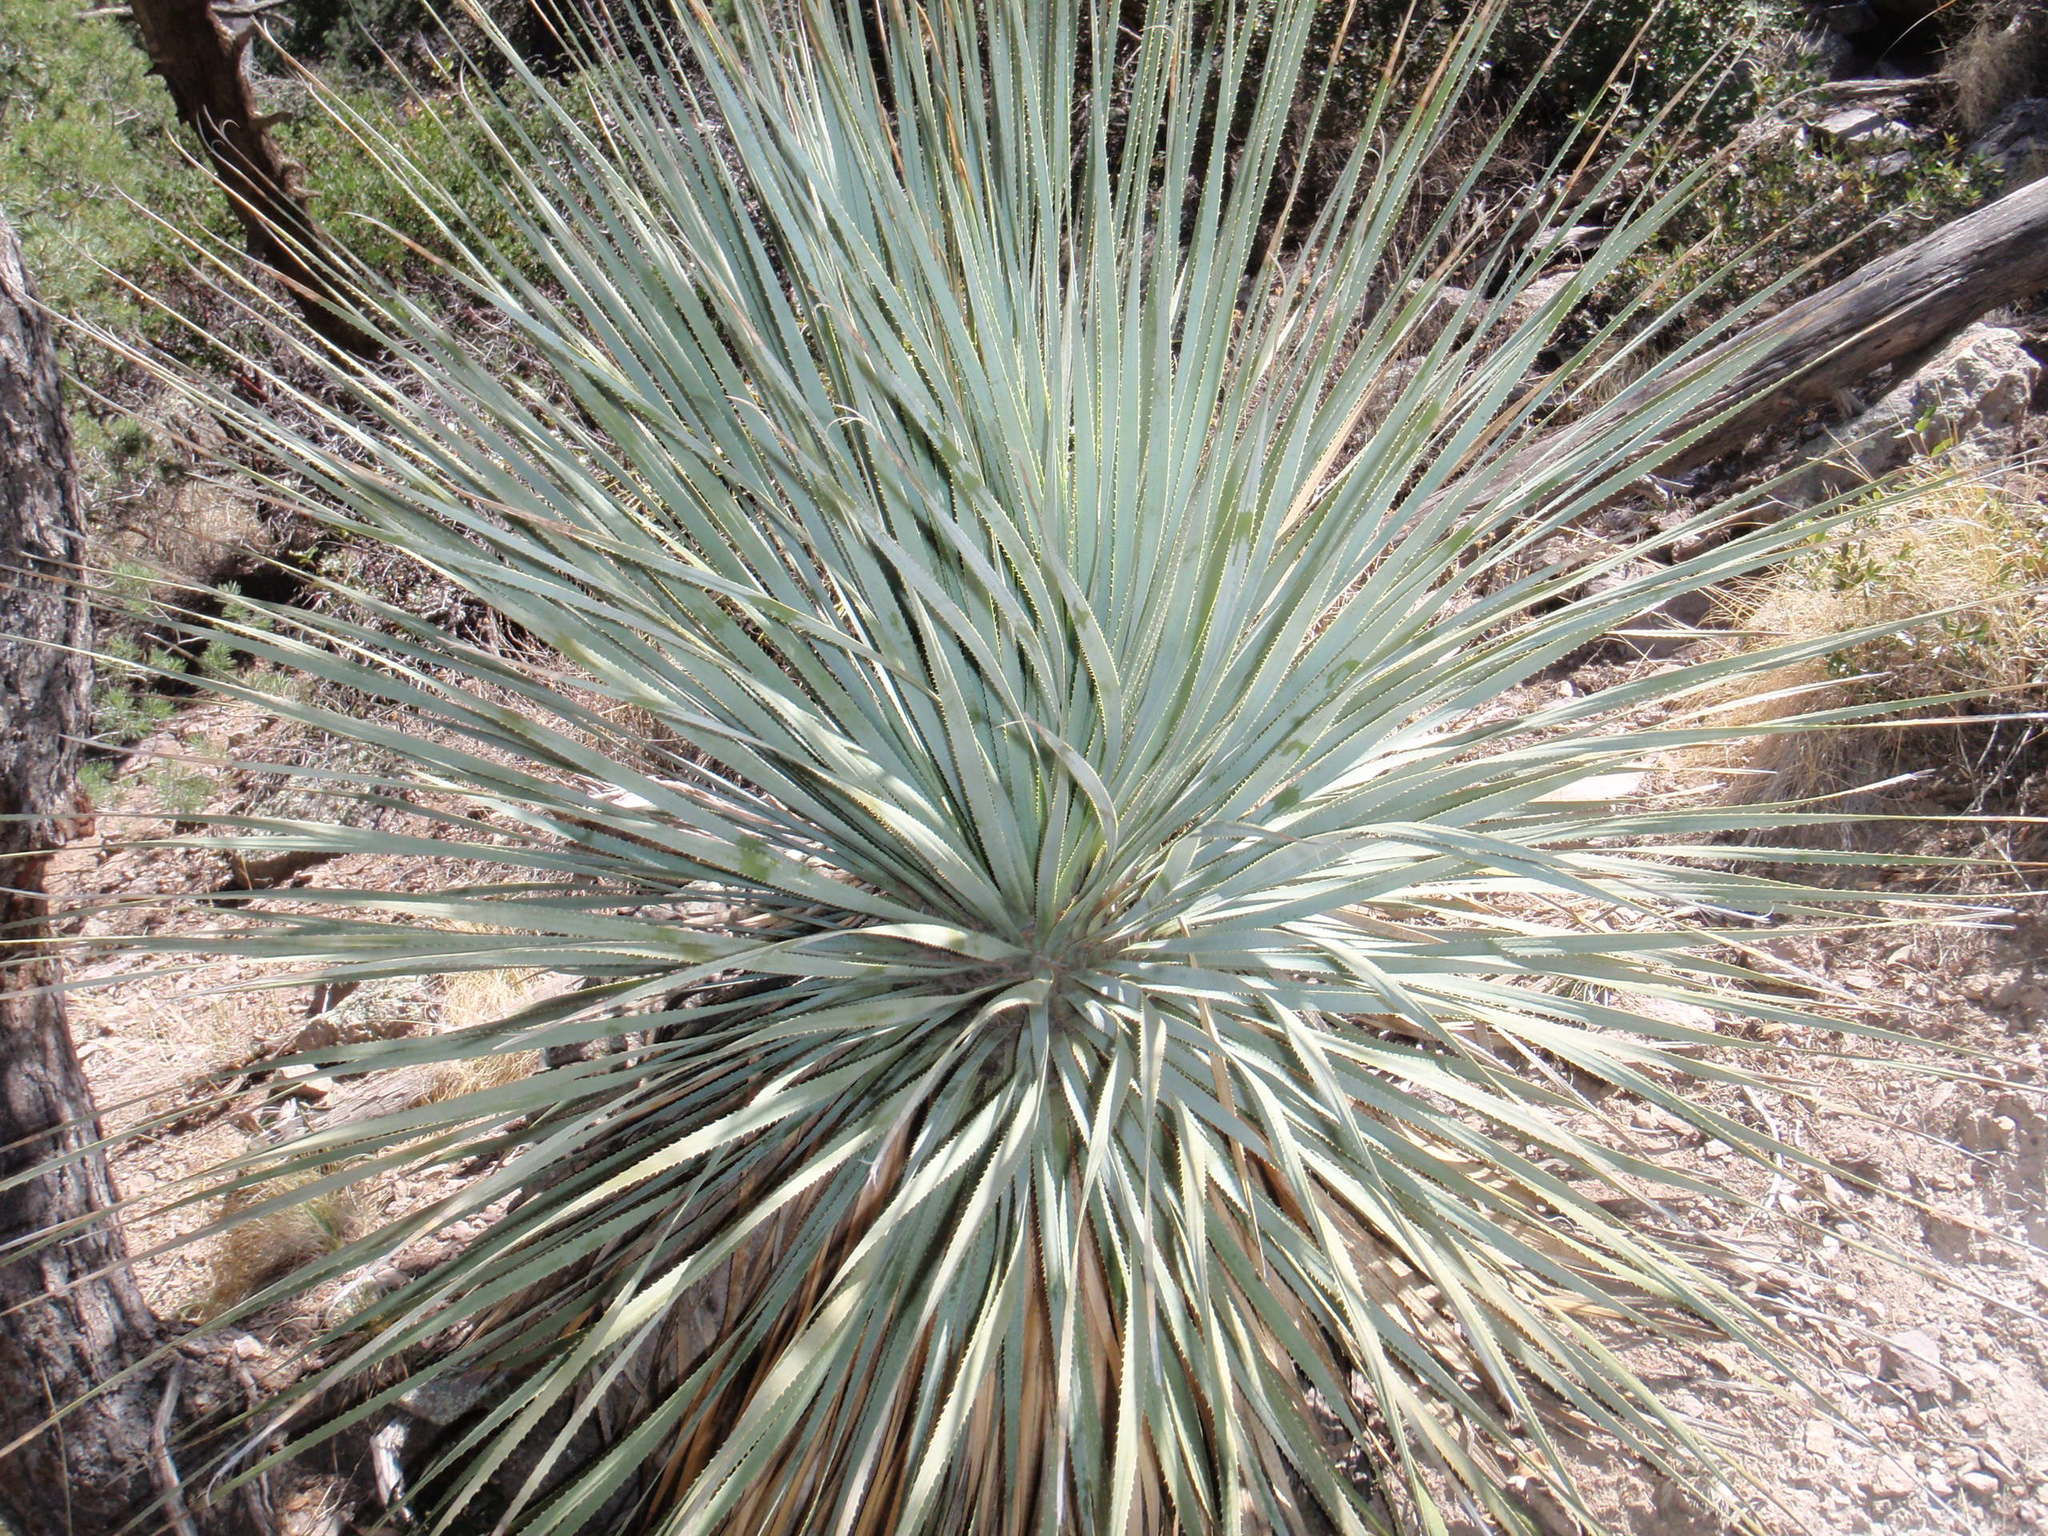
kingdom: Plantae
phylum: Tracheophyta
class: Liliopsida
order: Asparagales
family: Asparagaceae
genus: Dasylirion
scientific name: Dasylirion wheeleri
